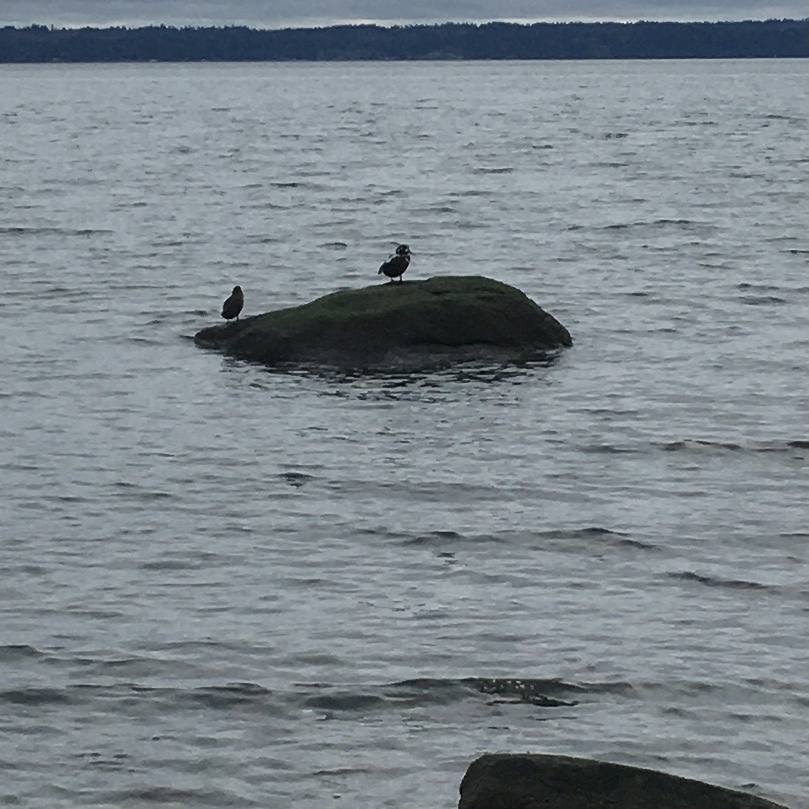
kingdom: Animalia
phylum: Chordata
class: Aves
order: Anseriformes
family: Anatidae
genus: Histrionicus
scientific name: Histrionicus histrionicus
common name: Harlequin duck
